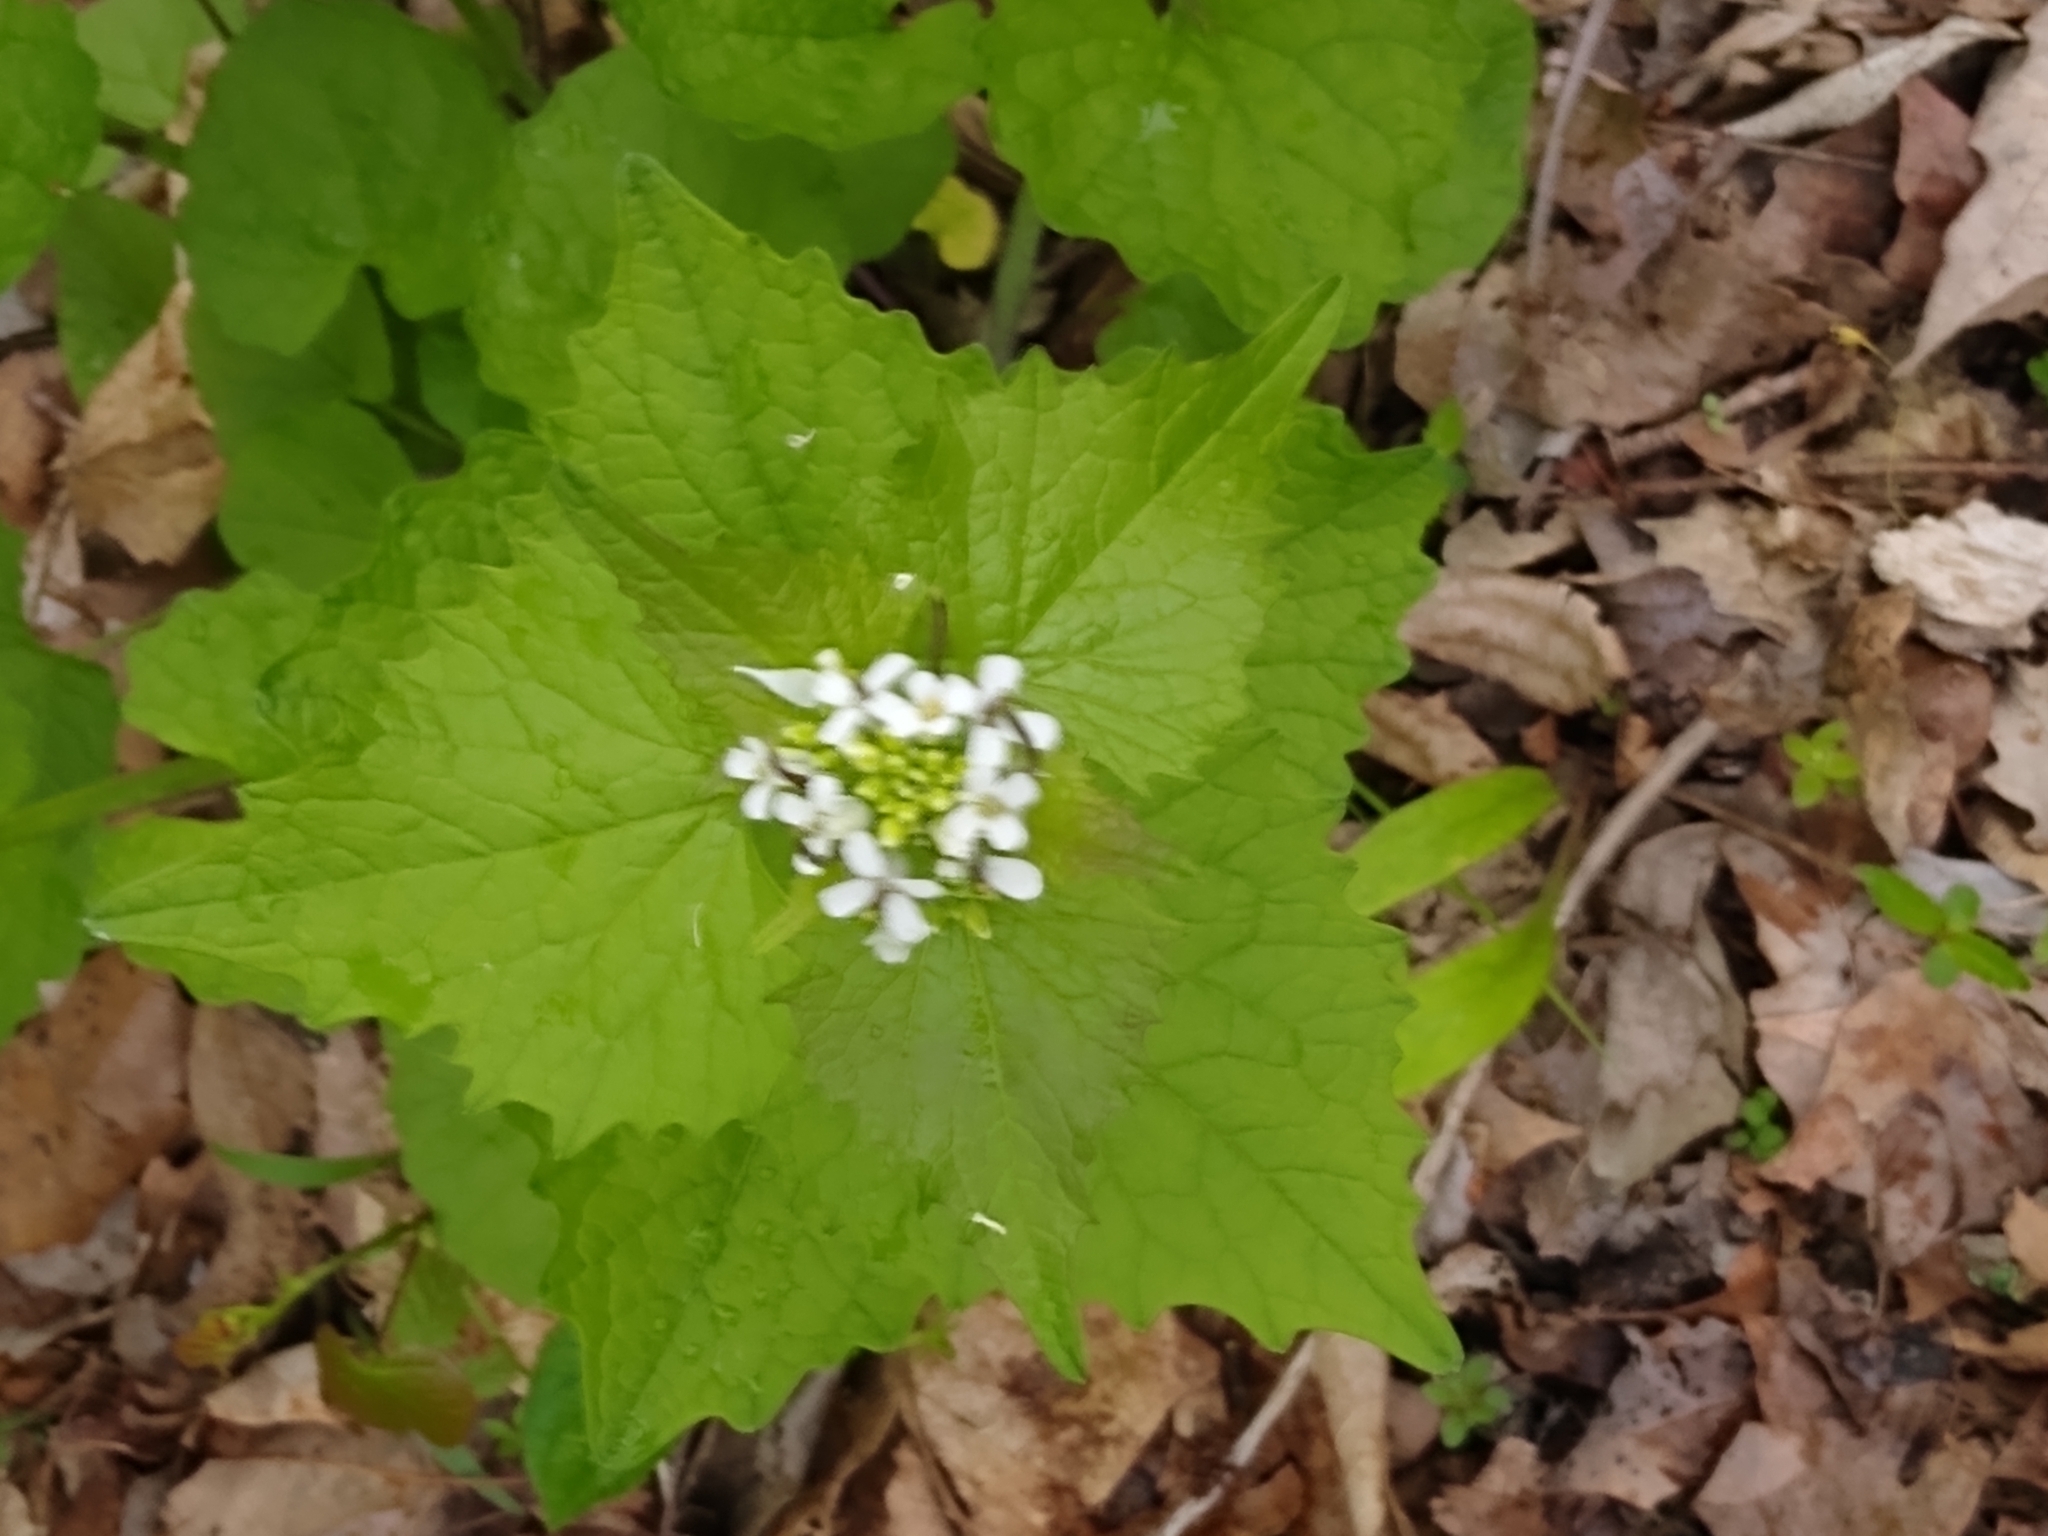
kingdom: Plantae
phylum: Tracheophyta
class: Magnoliopsida
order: Brassicales
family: Brassicaceae
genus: Alliaria
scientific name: Alliaria petiolata
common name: Garlic mustard
